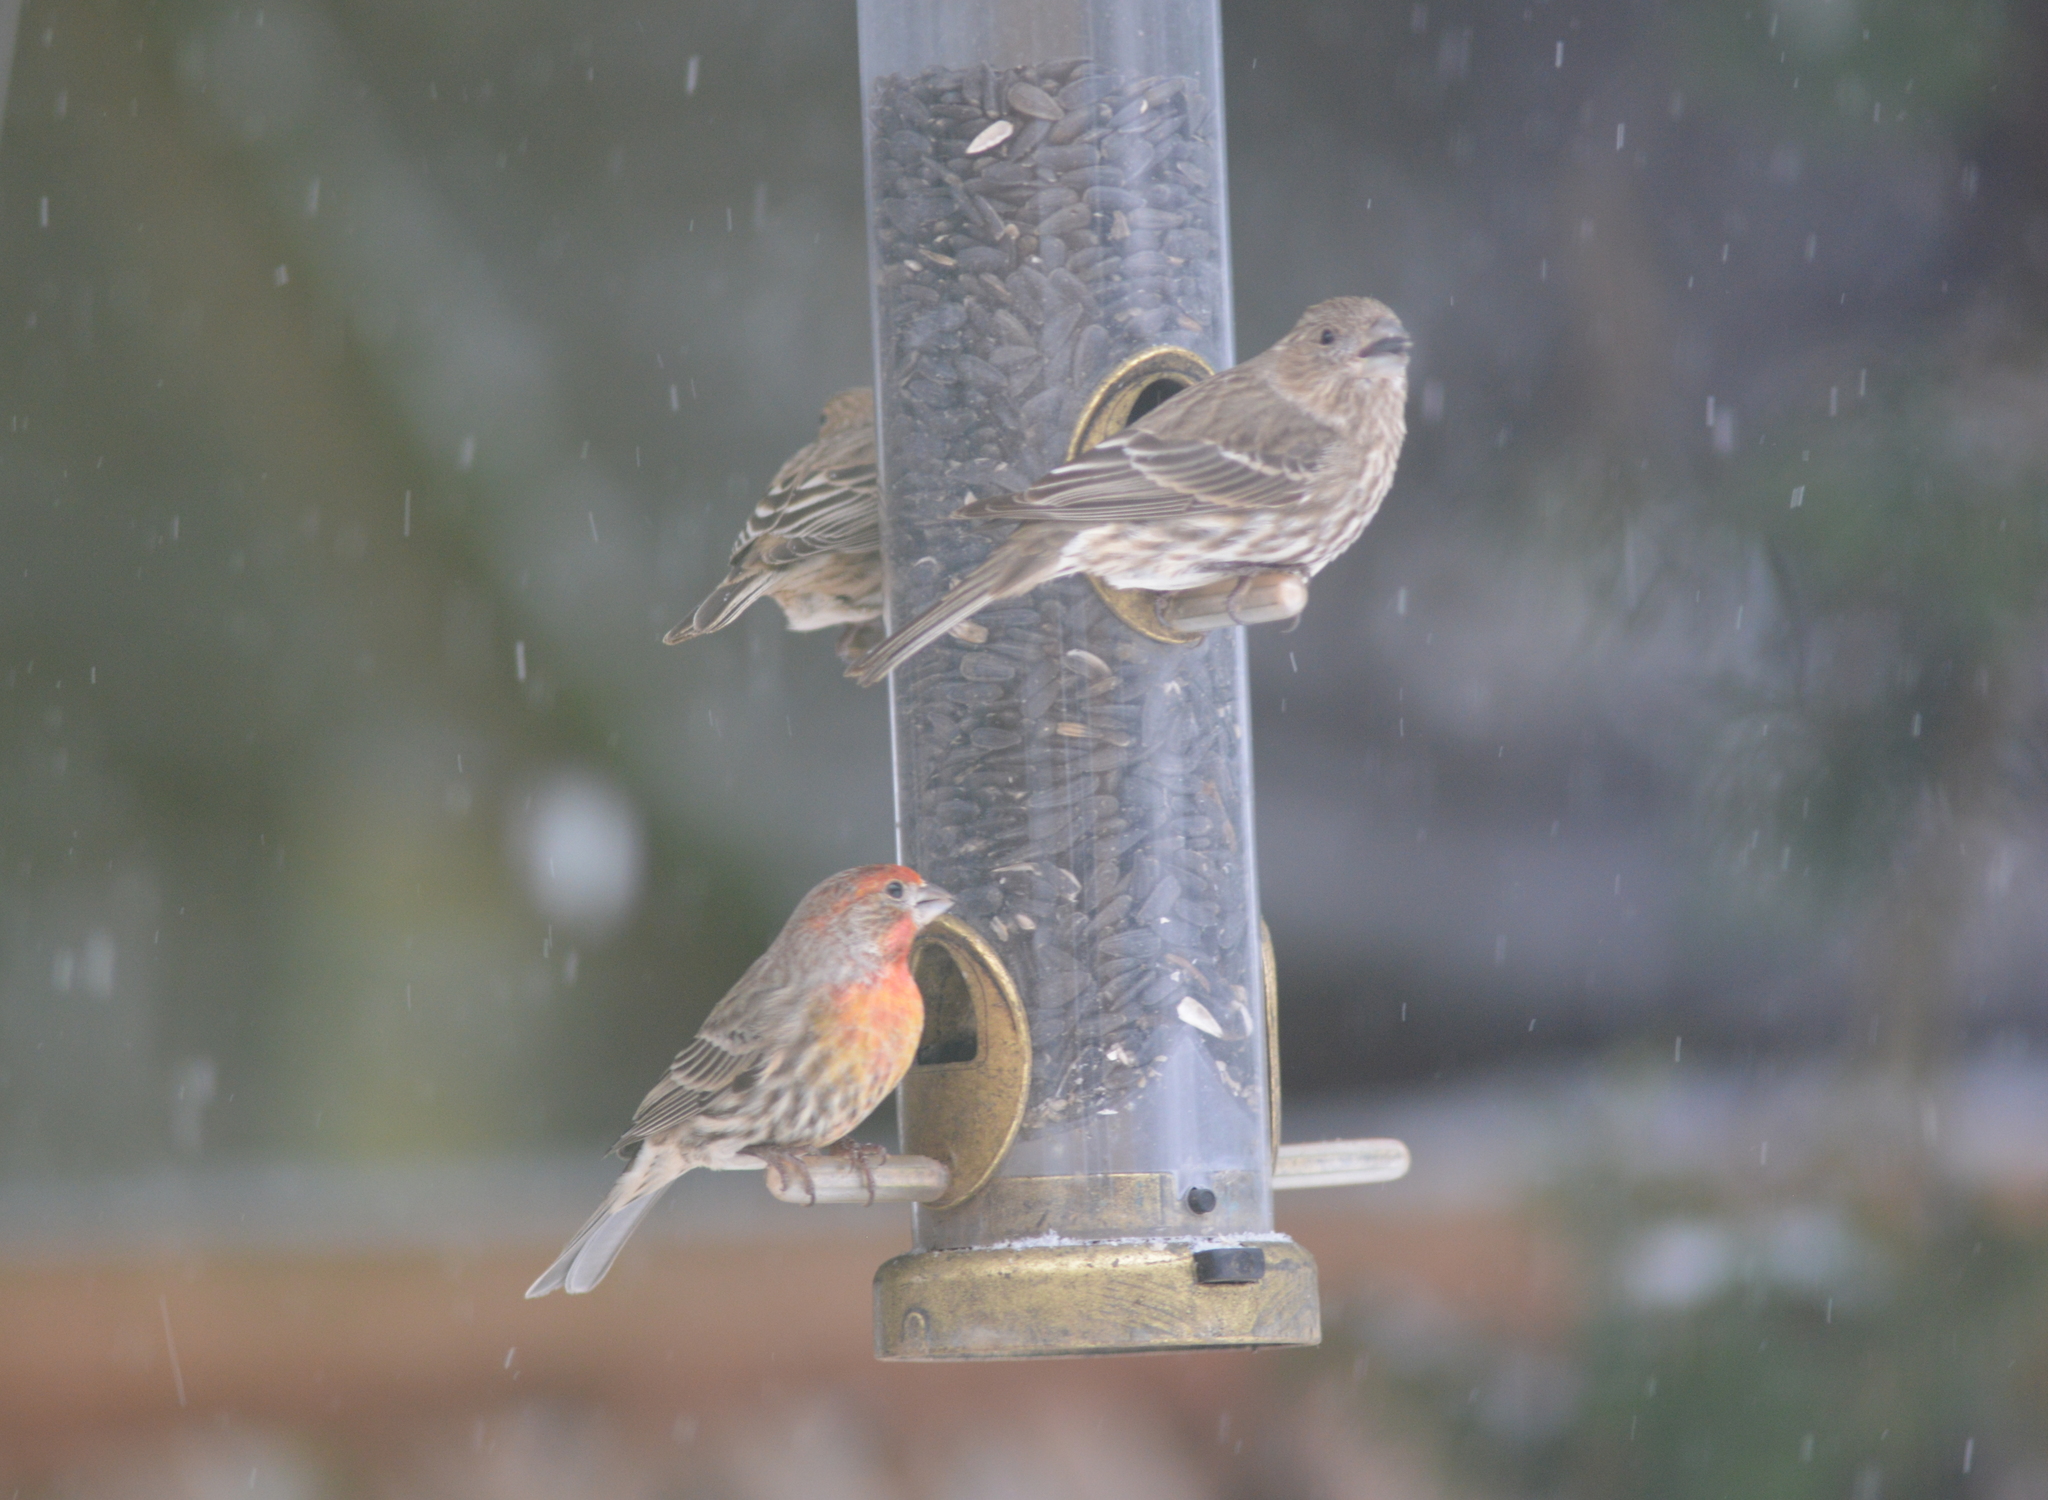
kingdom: Animalia
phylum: Chordata
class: Aves
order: Passeriformes
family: Fringillidae
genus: Haemorhous
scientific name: Haemorhous mexicanus
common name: House finch
